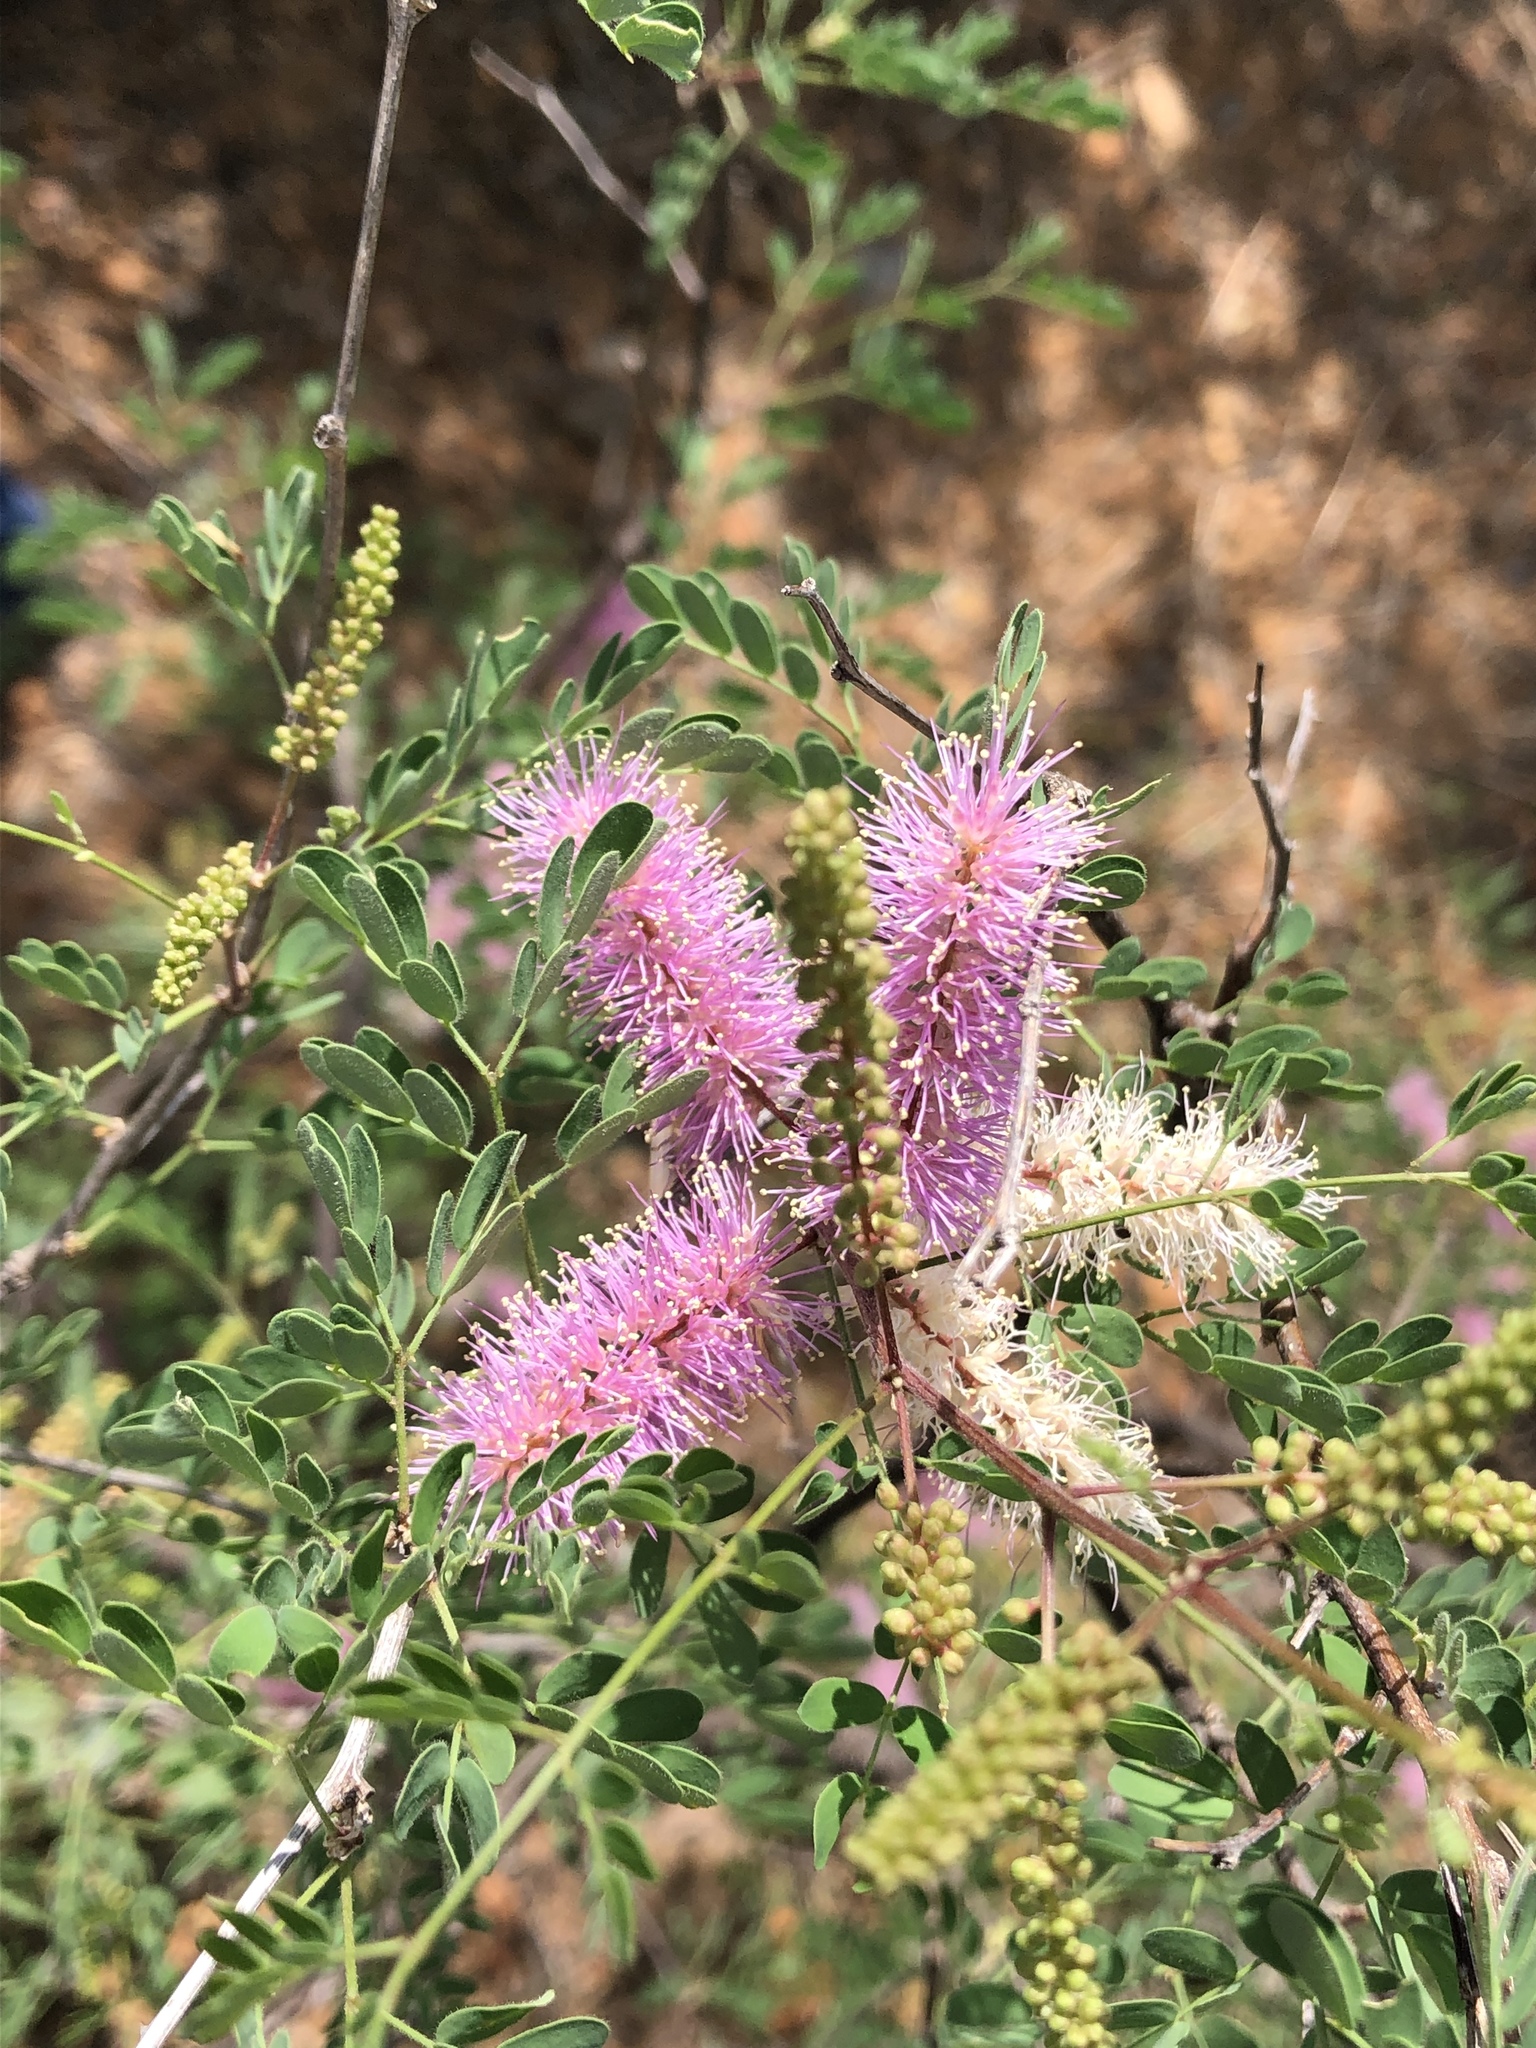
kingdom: Plantae
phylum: Tracheophyta
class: Magnoliopsida
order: Fabales
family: Fabaceae
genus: Mimosa
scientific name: Mimosa distachya
